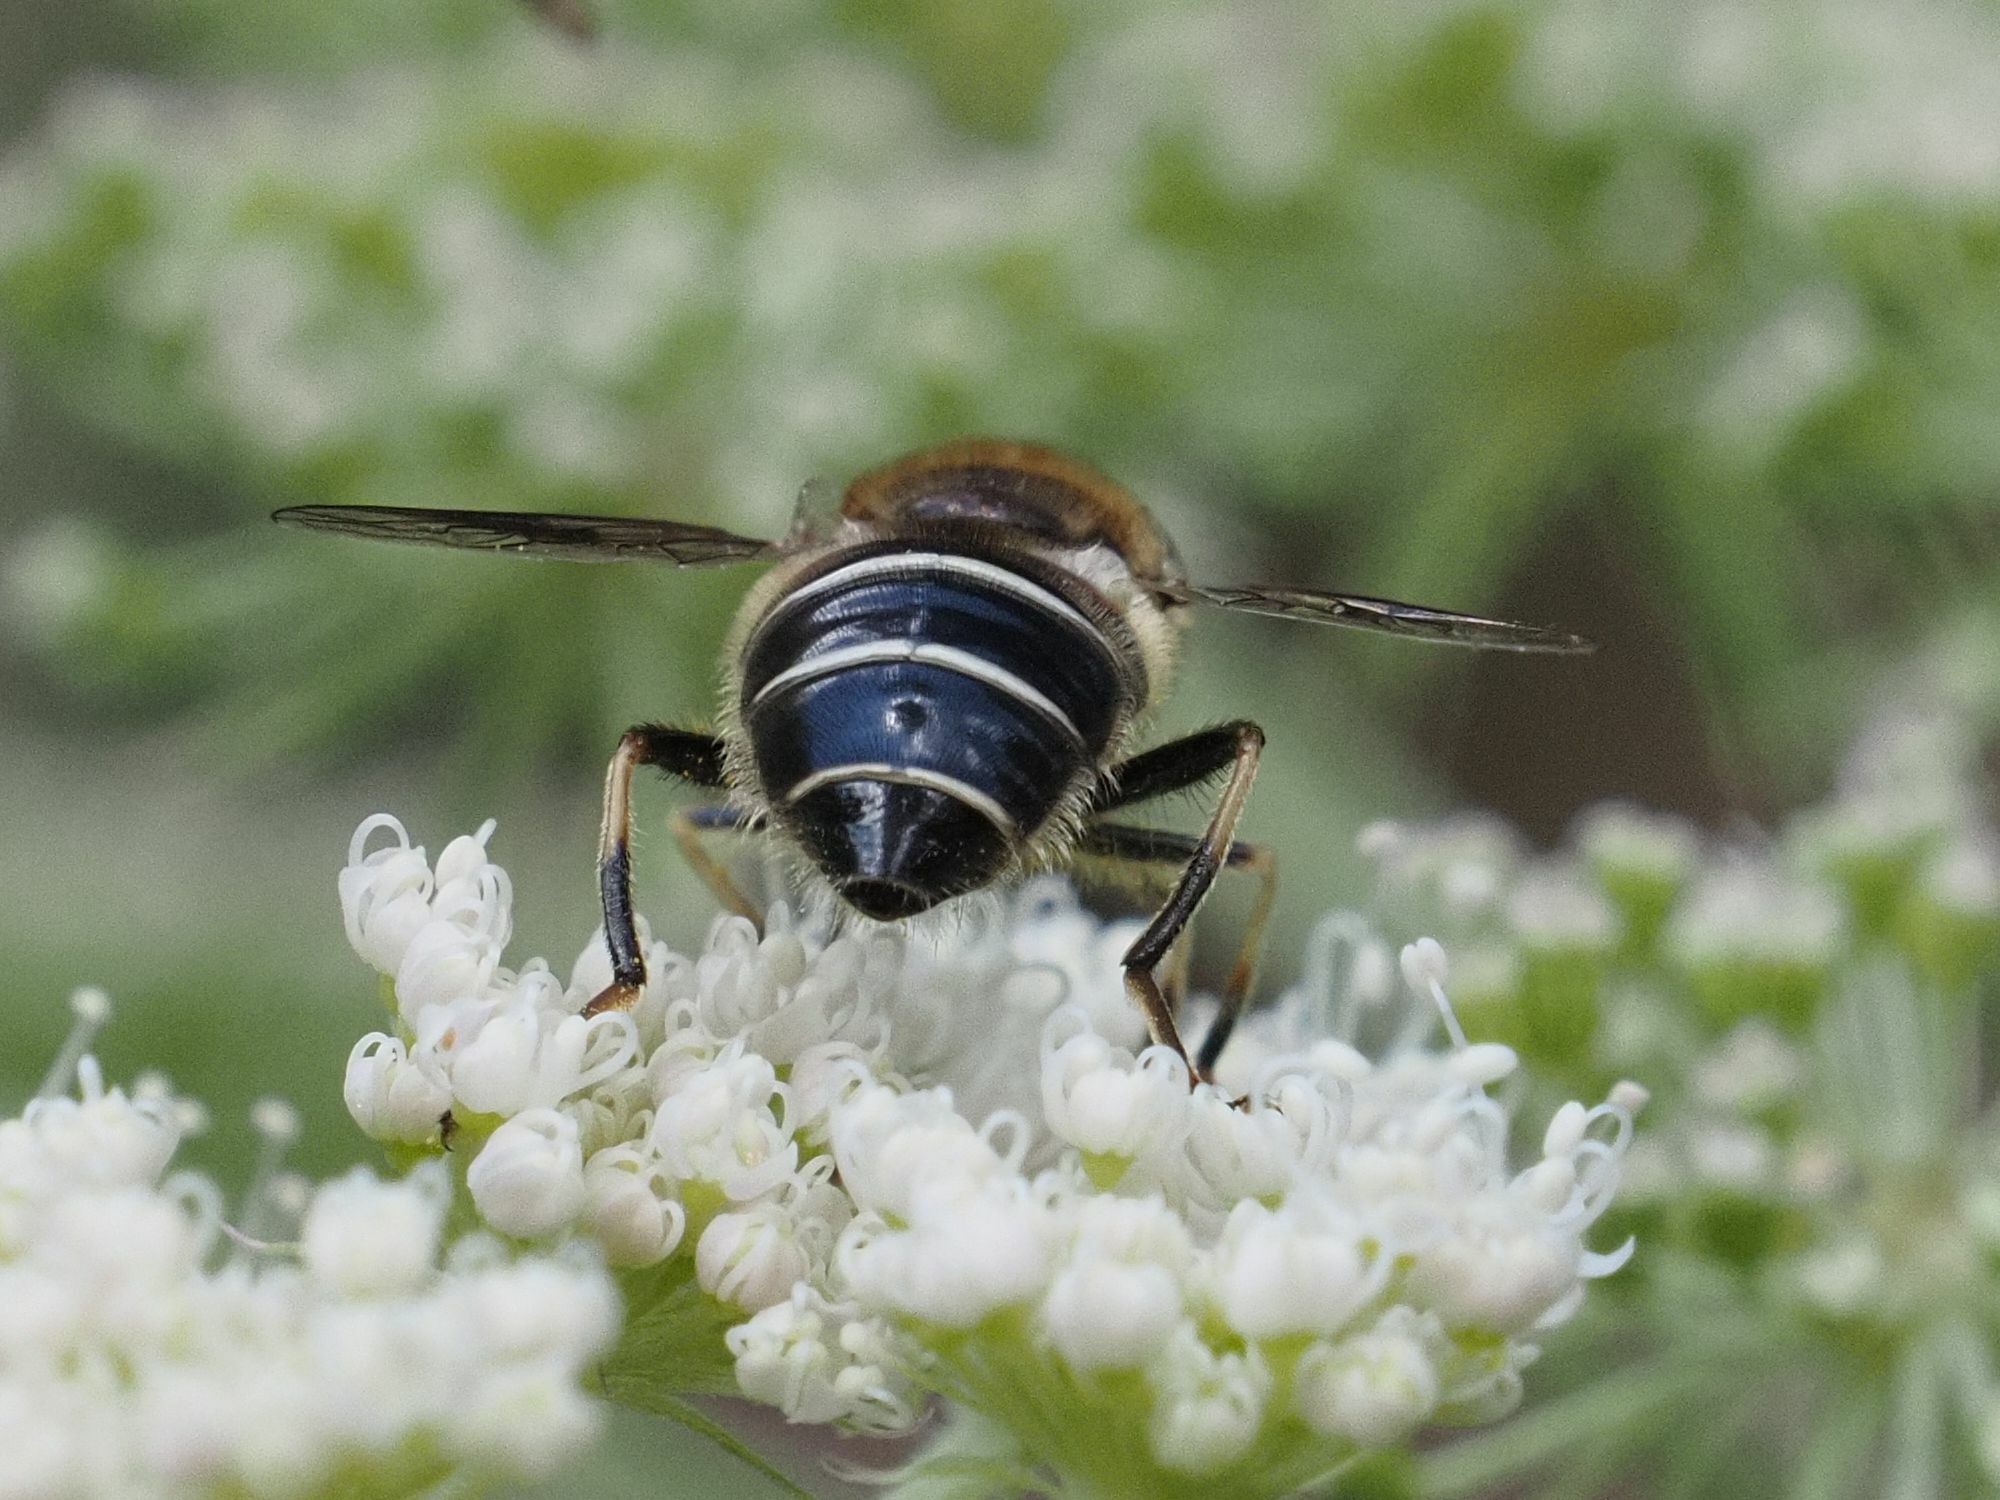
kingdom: Animalia
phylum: Arthropoda
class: Insecta
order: Diptera
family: Syrphidae
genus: Eristalis
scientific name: Eristalis rupium
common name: Hover fly
